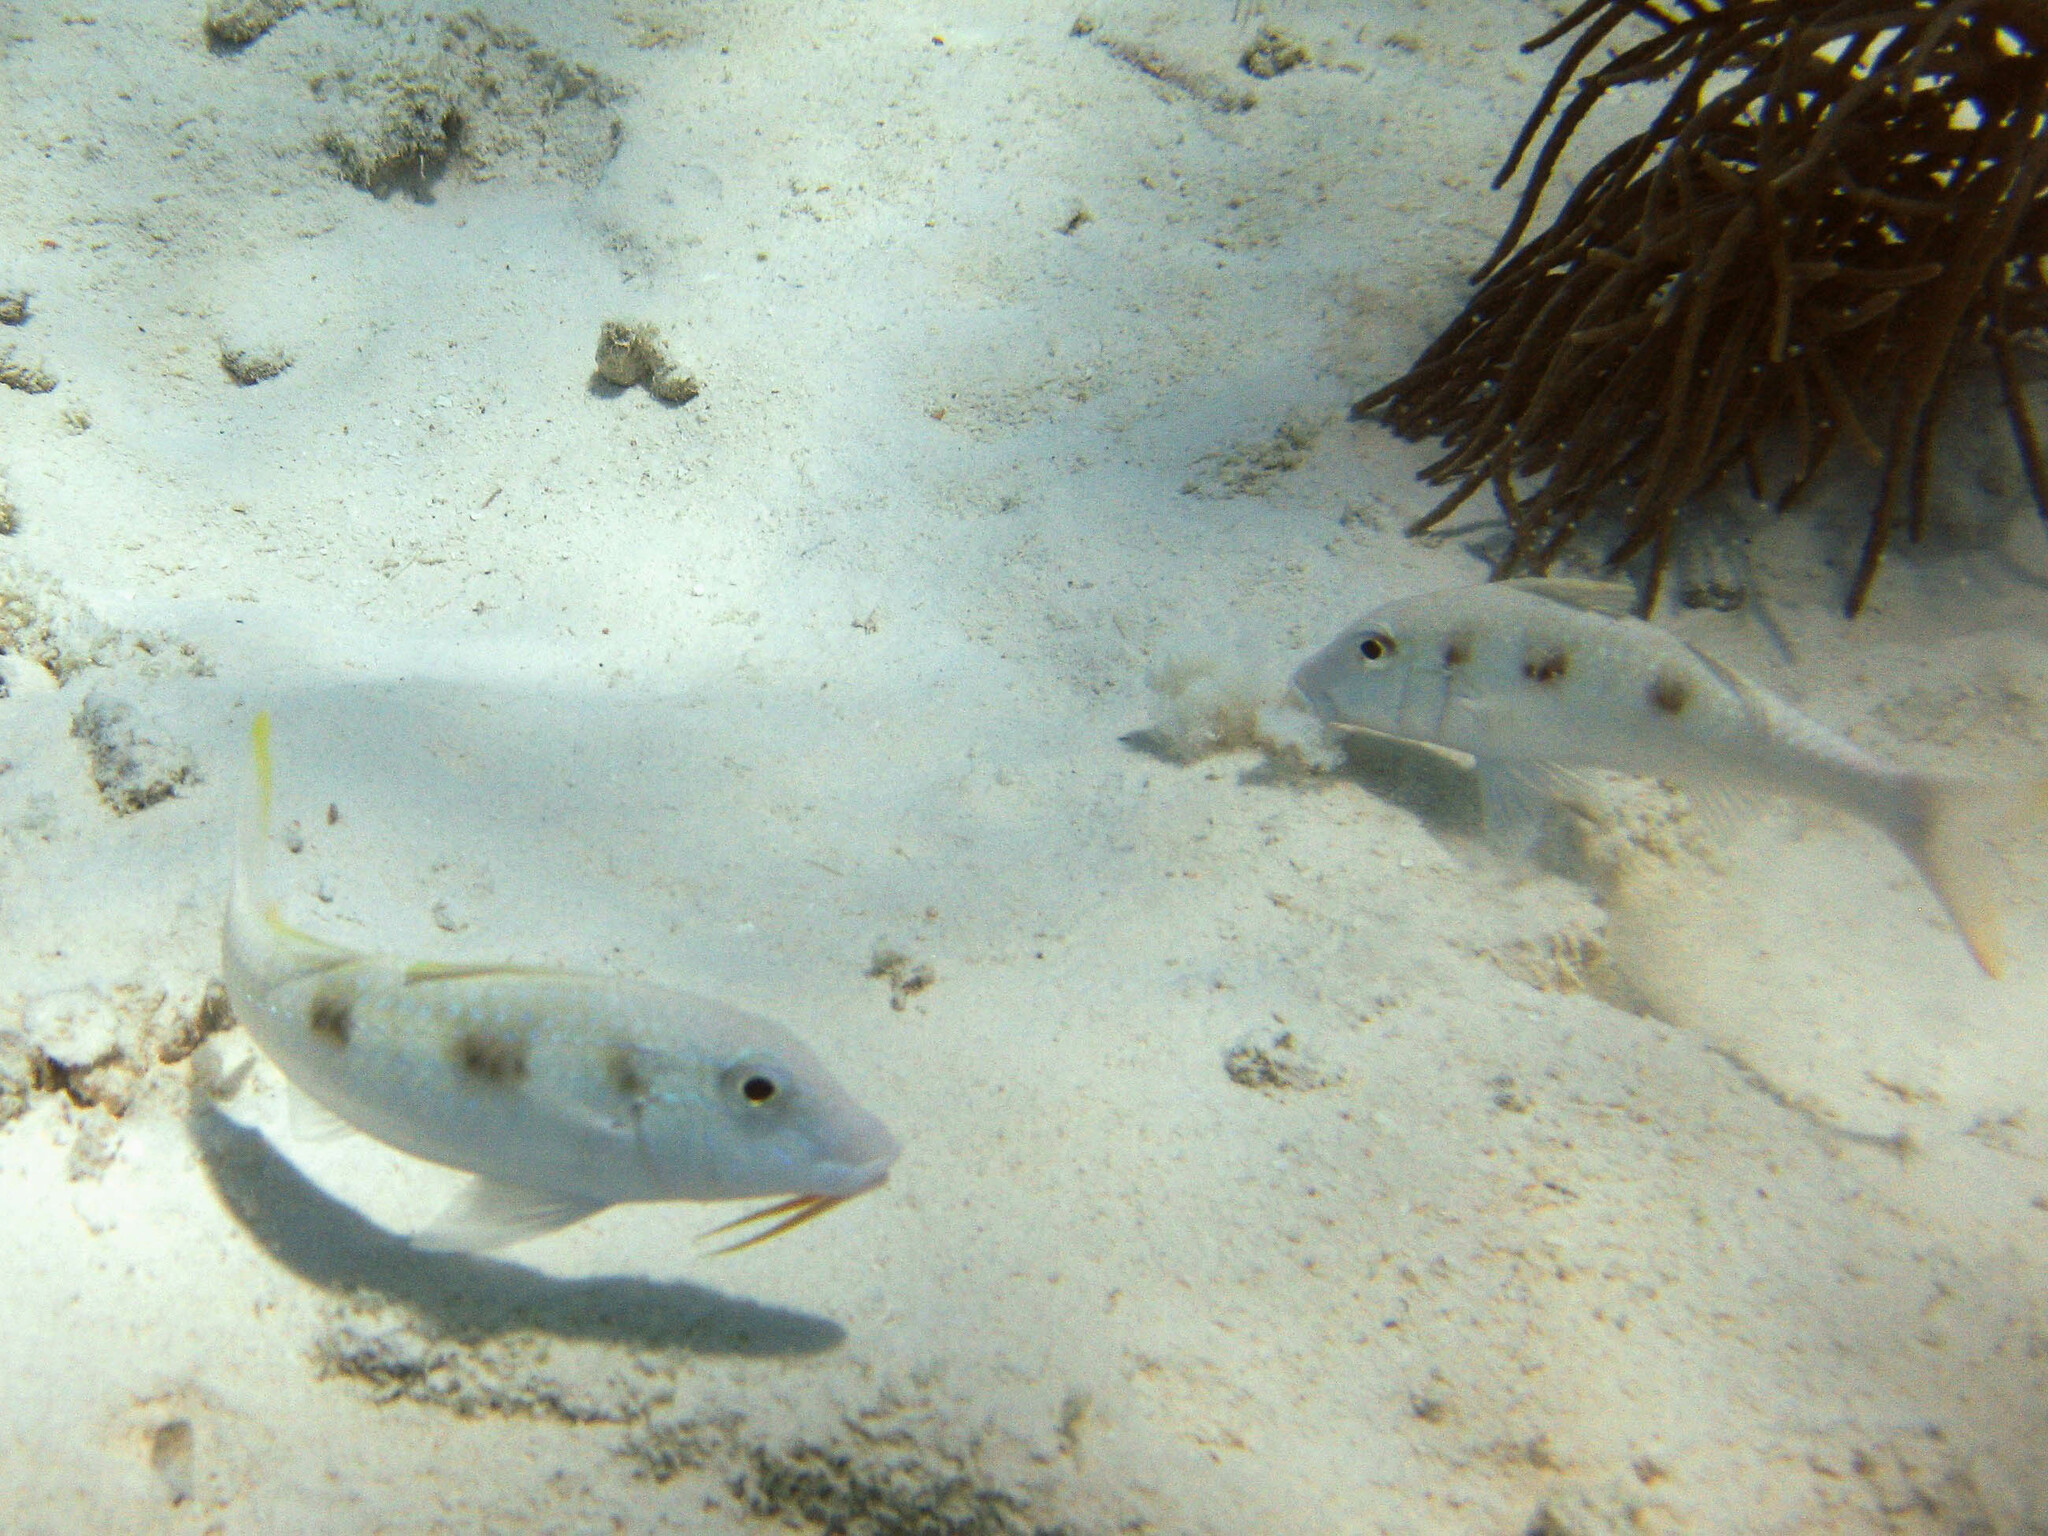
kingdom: Animalia
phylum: Chordata
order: Perciformes
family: Mullidae
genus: Pseudupeneus
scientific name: Pseudupeneus maculatus
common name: Spotted goatfish
